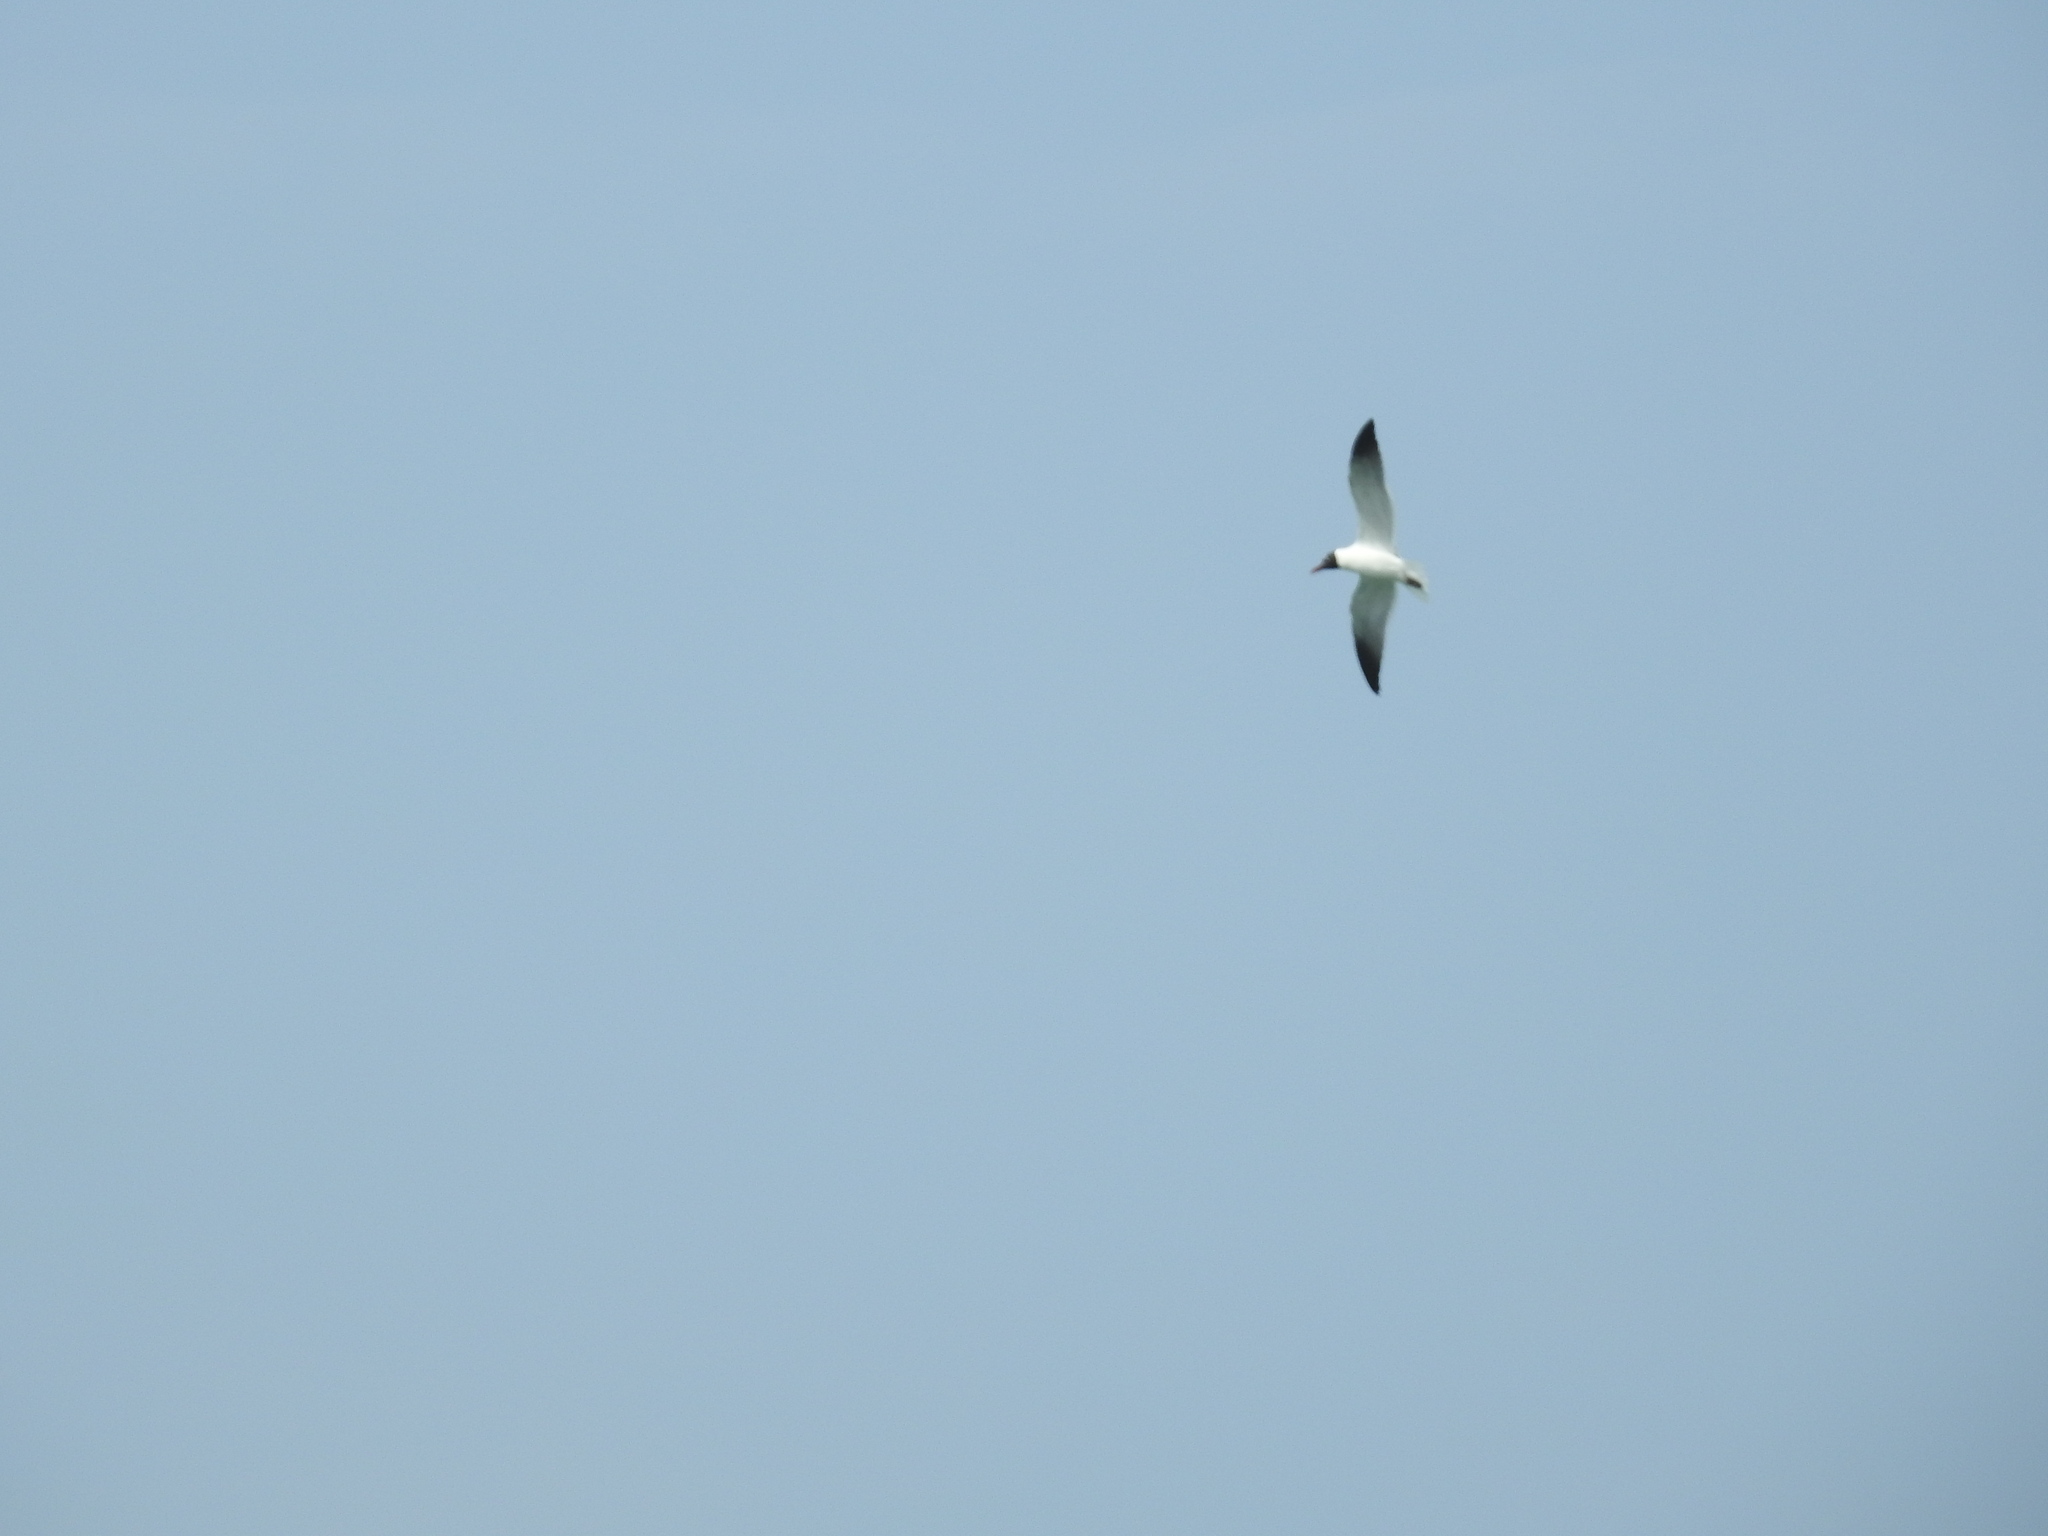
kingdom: Animalia
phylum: Chordata
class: Aves
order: Charadriiformes
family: Laridae
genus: Leucophaeus
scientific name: Leucophaeus atricilla
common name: Laughing gull
